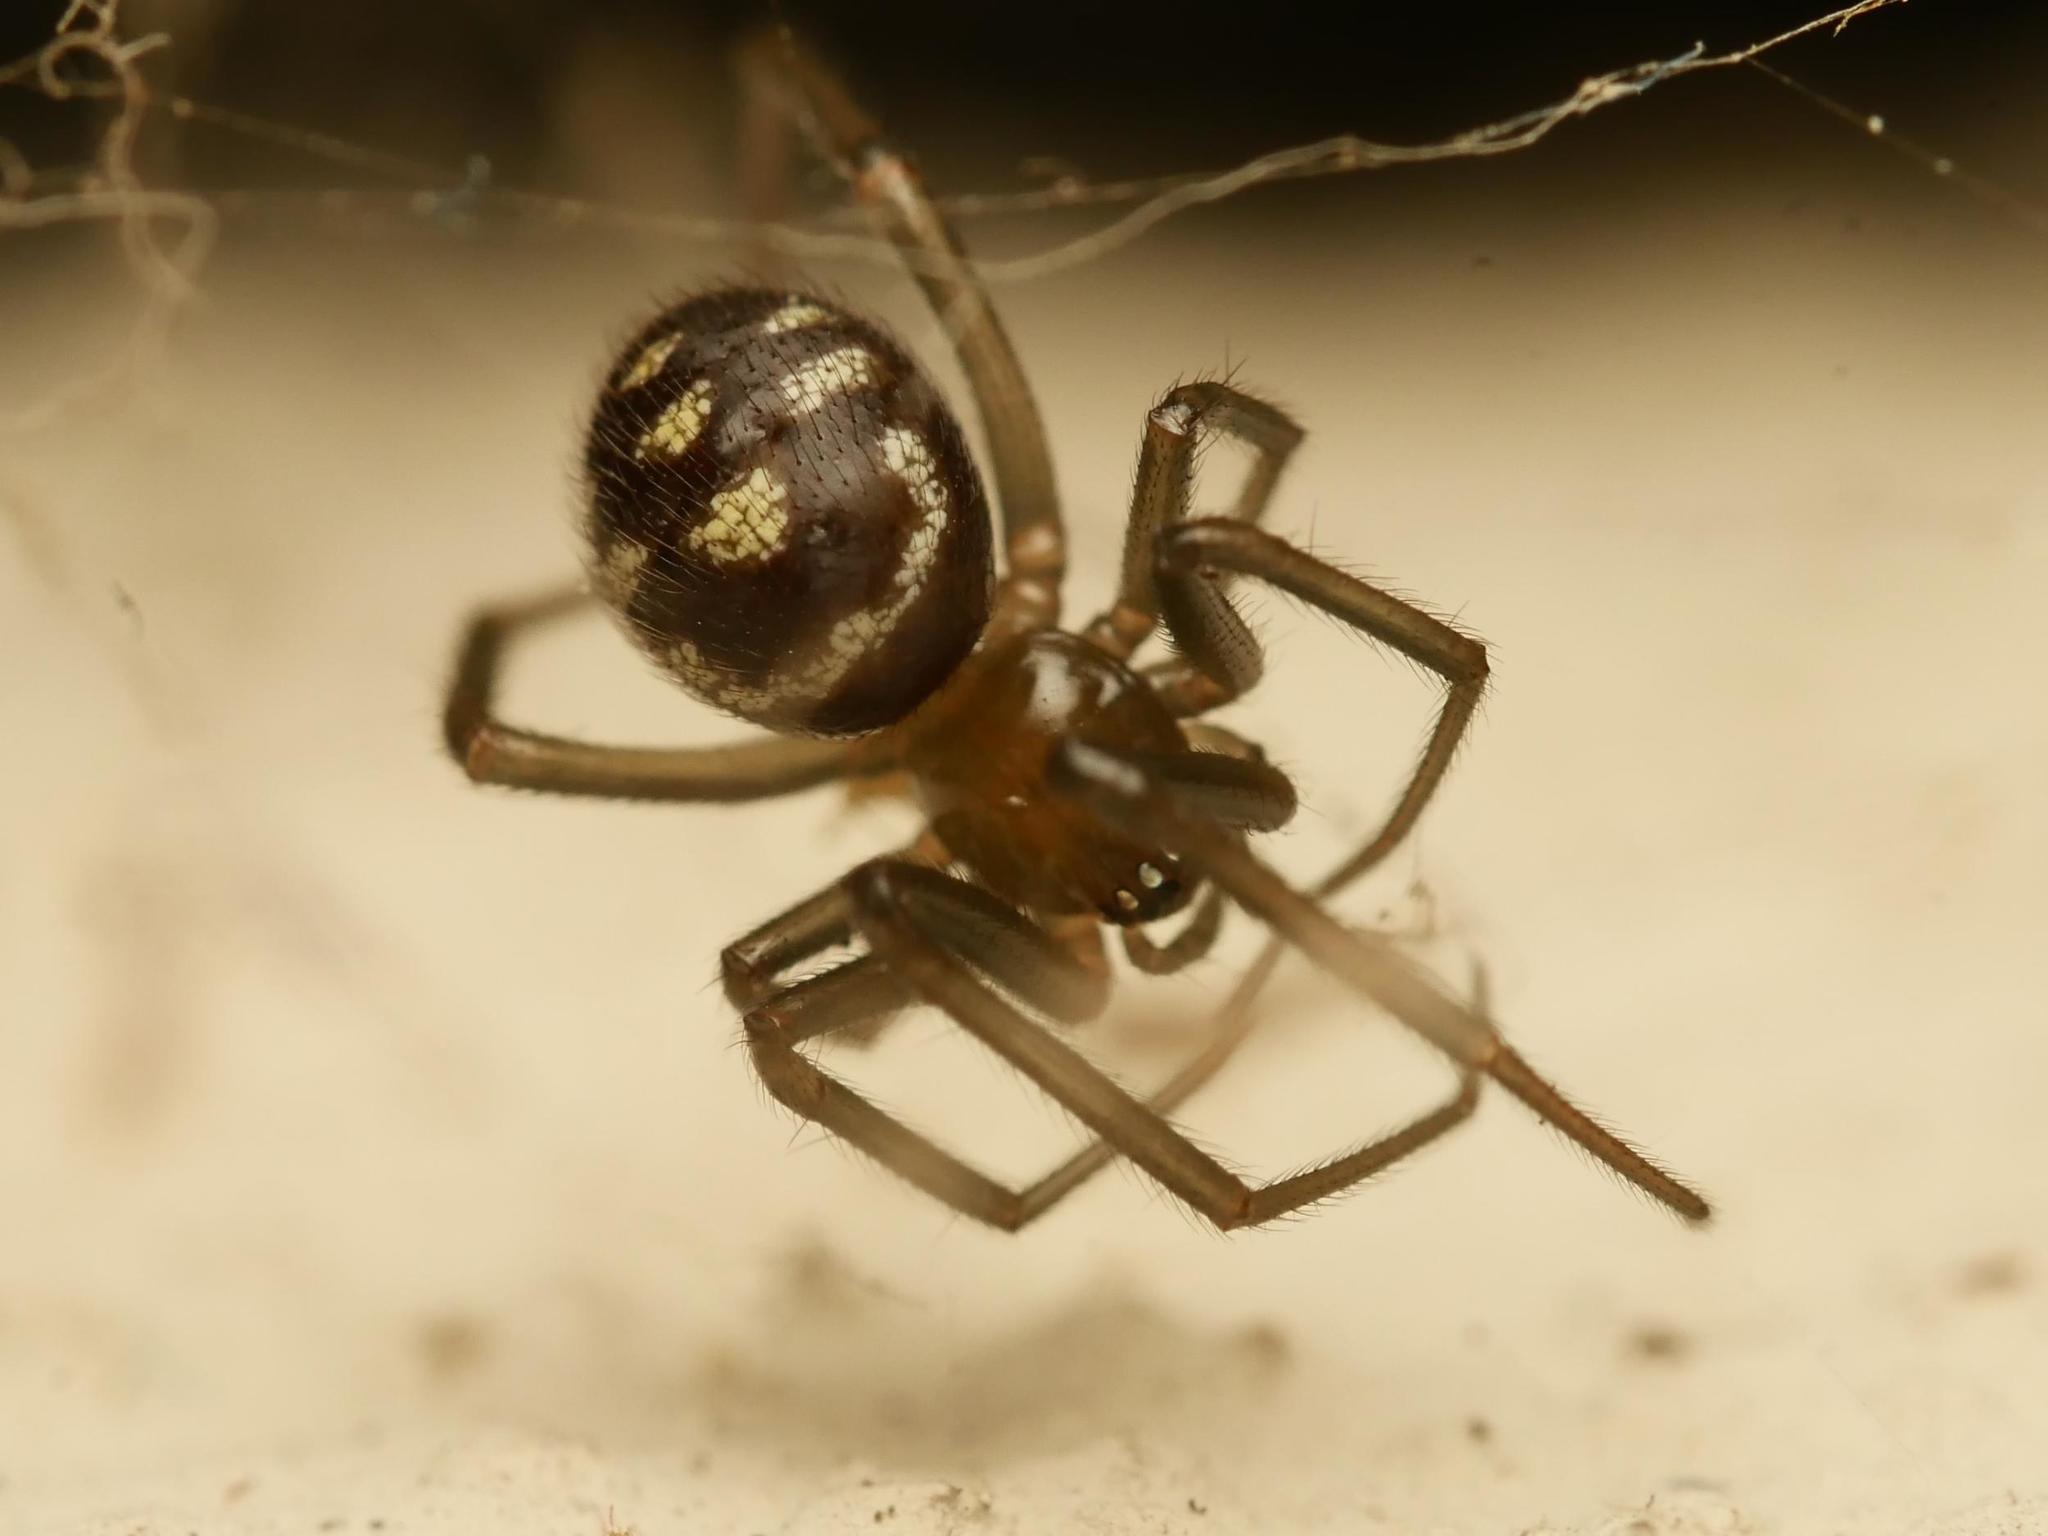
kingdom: Animalia
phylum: Arthropoda
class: Arachnida
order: Araneae
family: Theridiidae
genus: Steatoda
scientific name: Steatoda grossa
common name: False black widow
